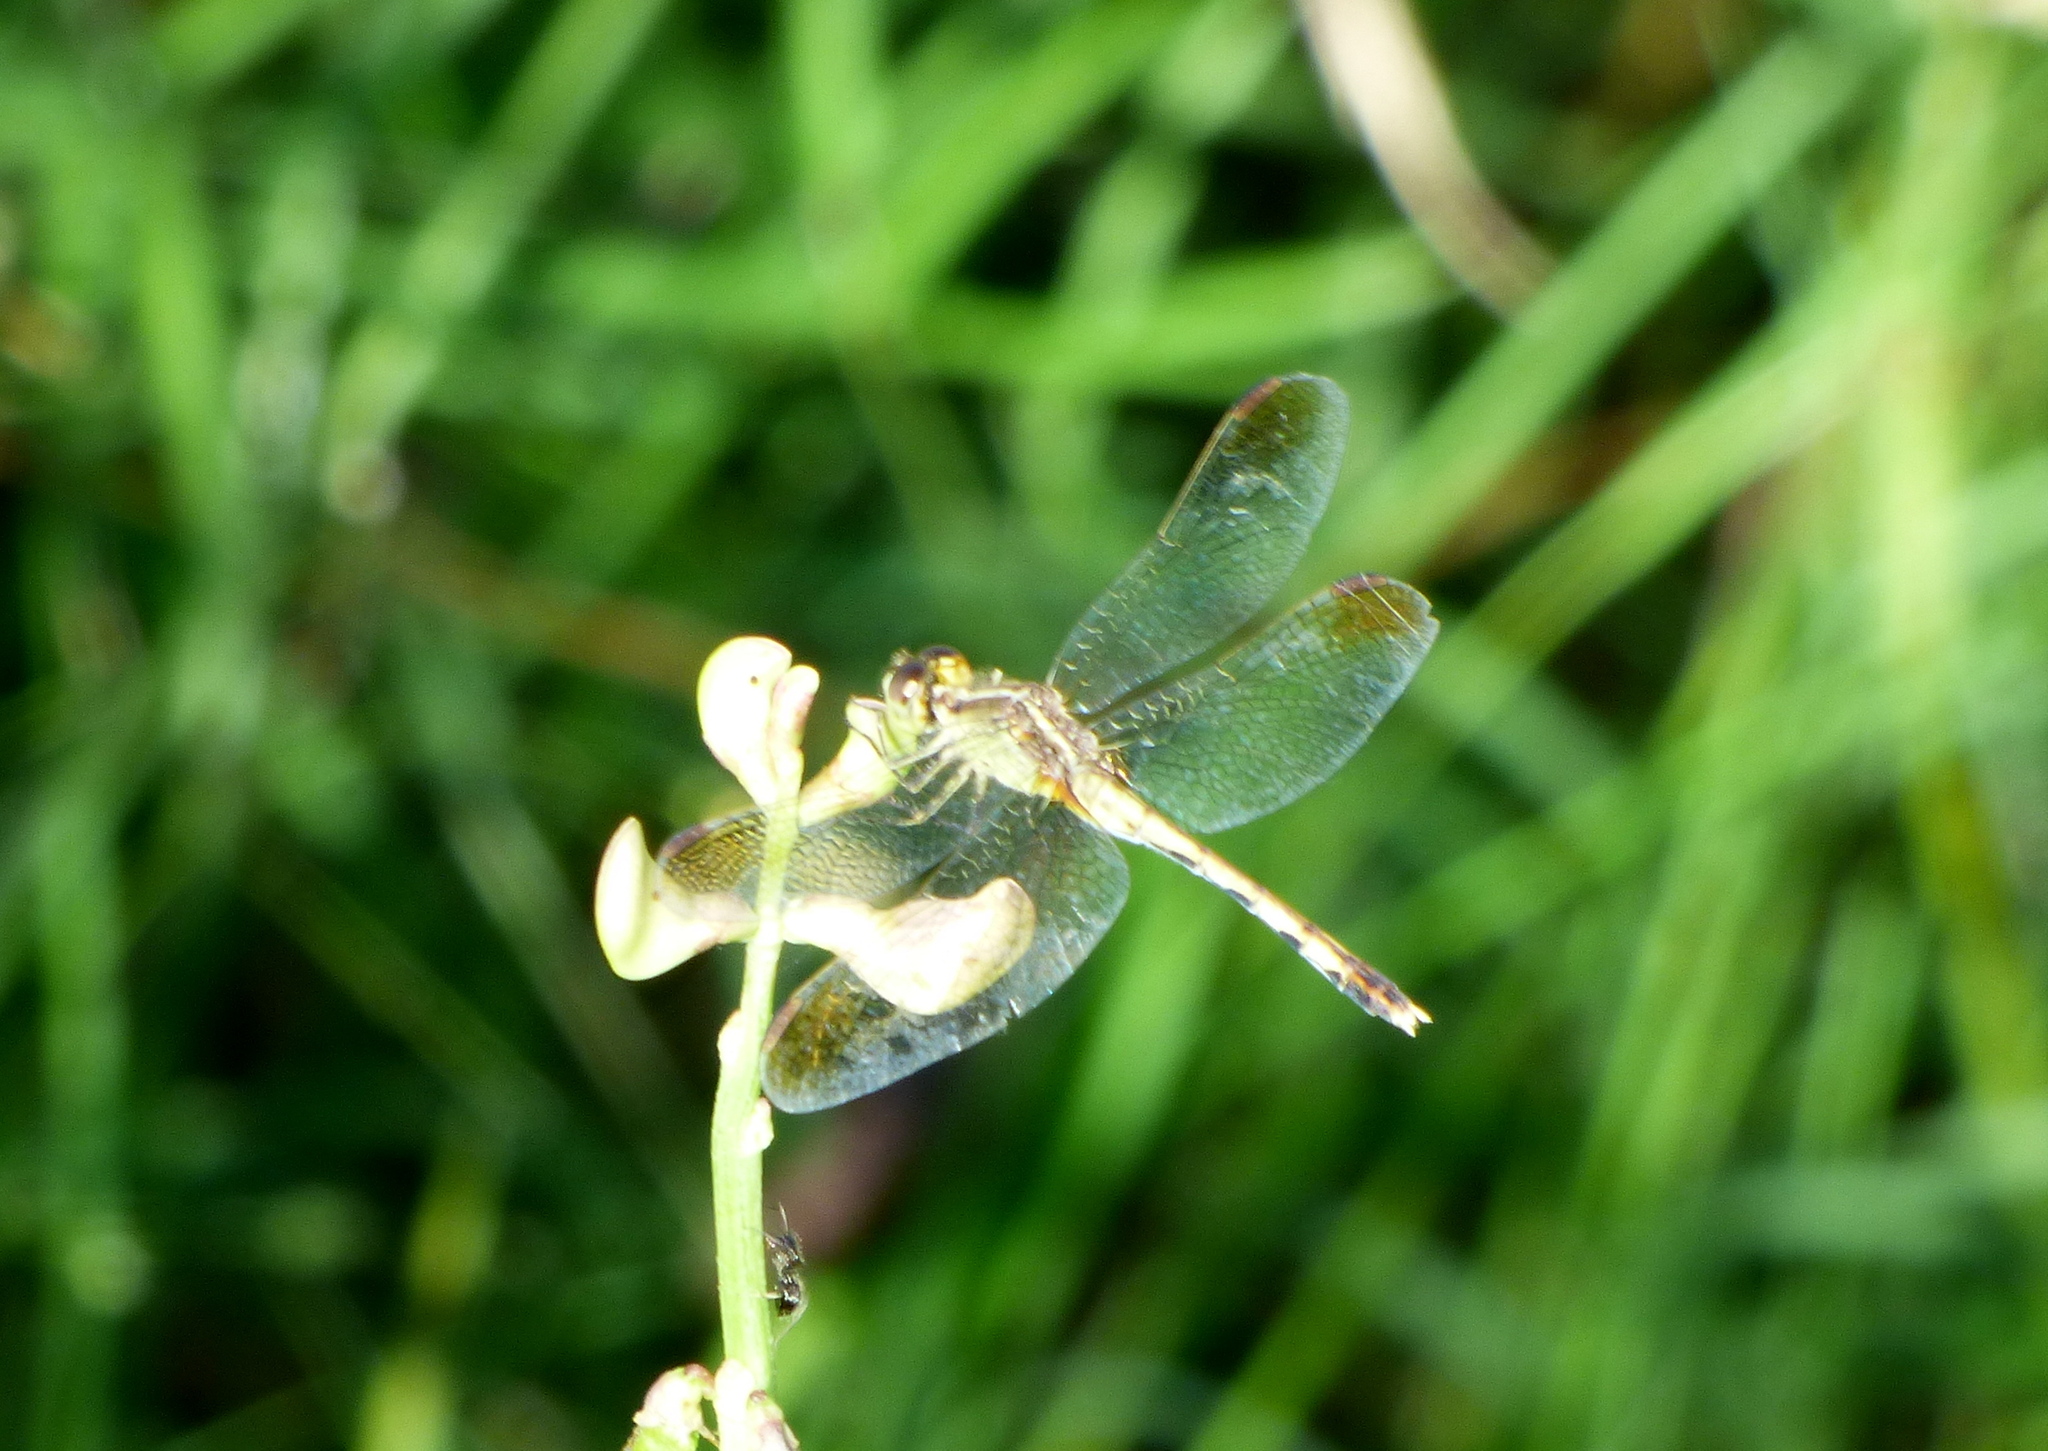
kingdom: Animalia
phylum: Arthropoda
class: Insecta
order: Odonata
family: Libellulidae
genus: Erythrodiplax
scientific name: Erythrodiplax nigricans
